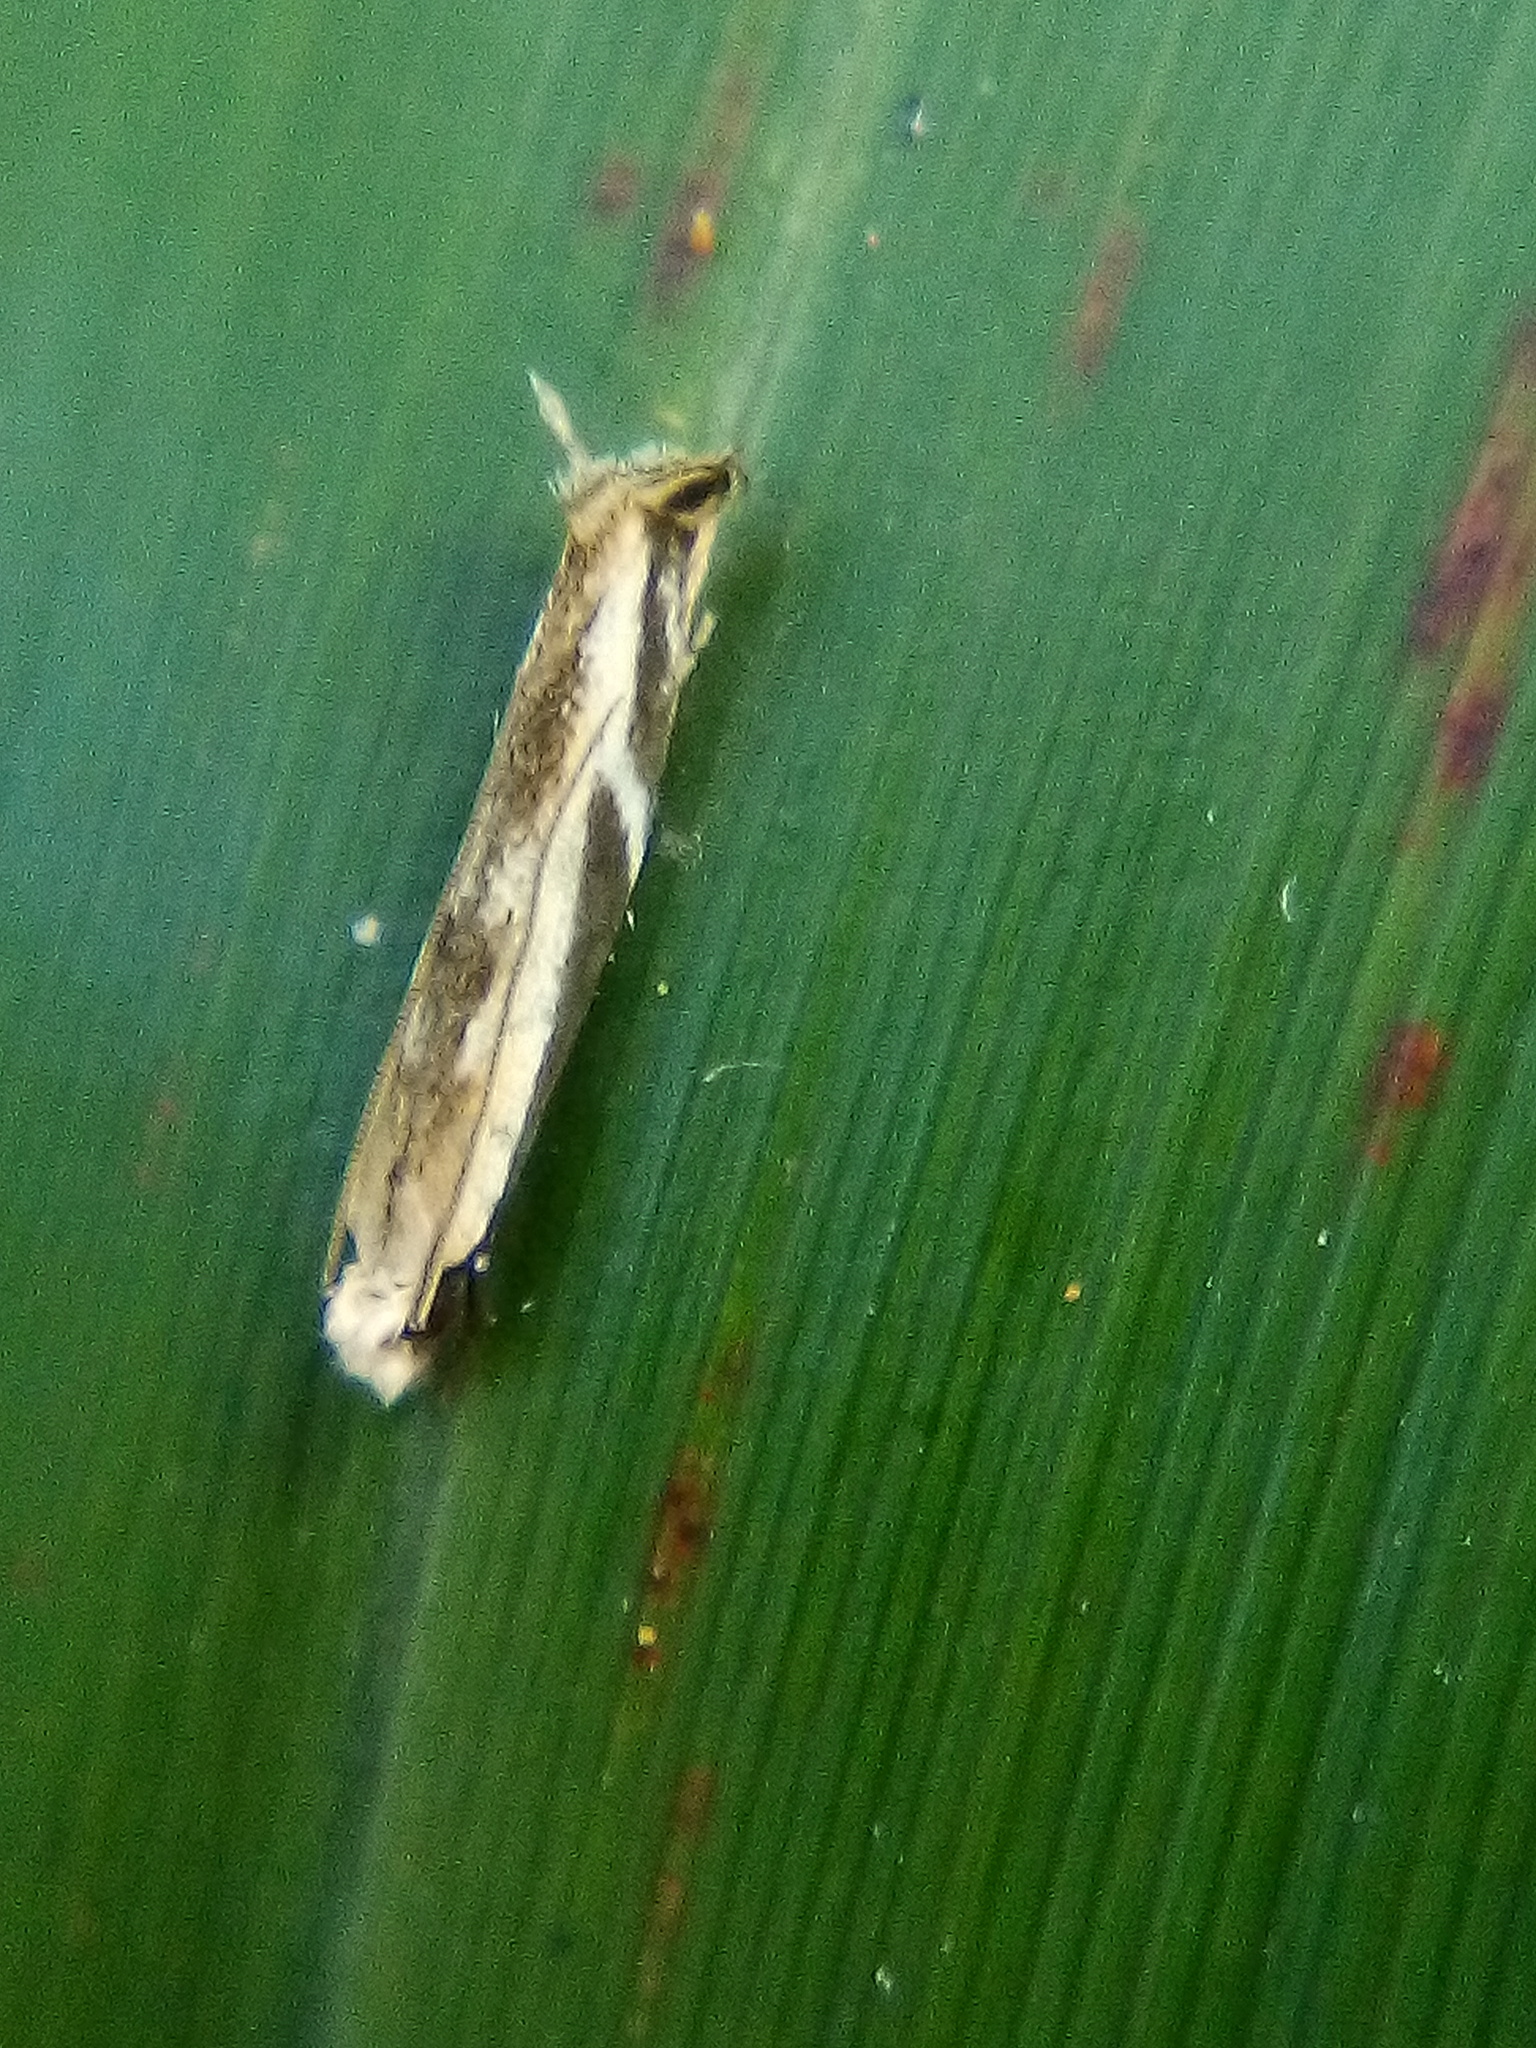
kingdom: Animalia
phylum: Arthropoda
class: Insecta
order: Lepidoptera
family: Tineidae
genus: Erechthias
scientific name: Erechthias terminella
